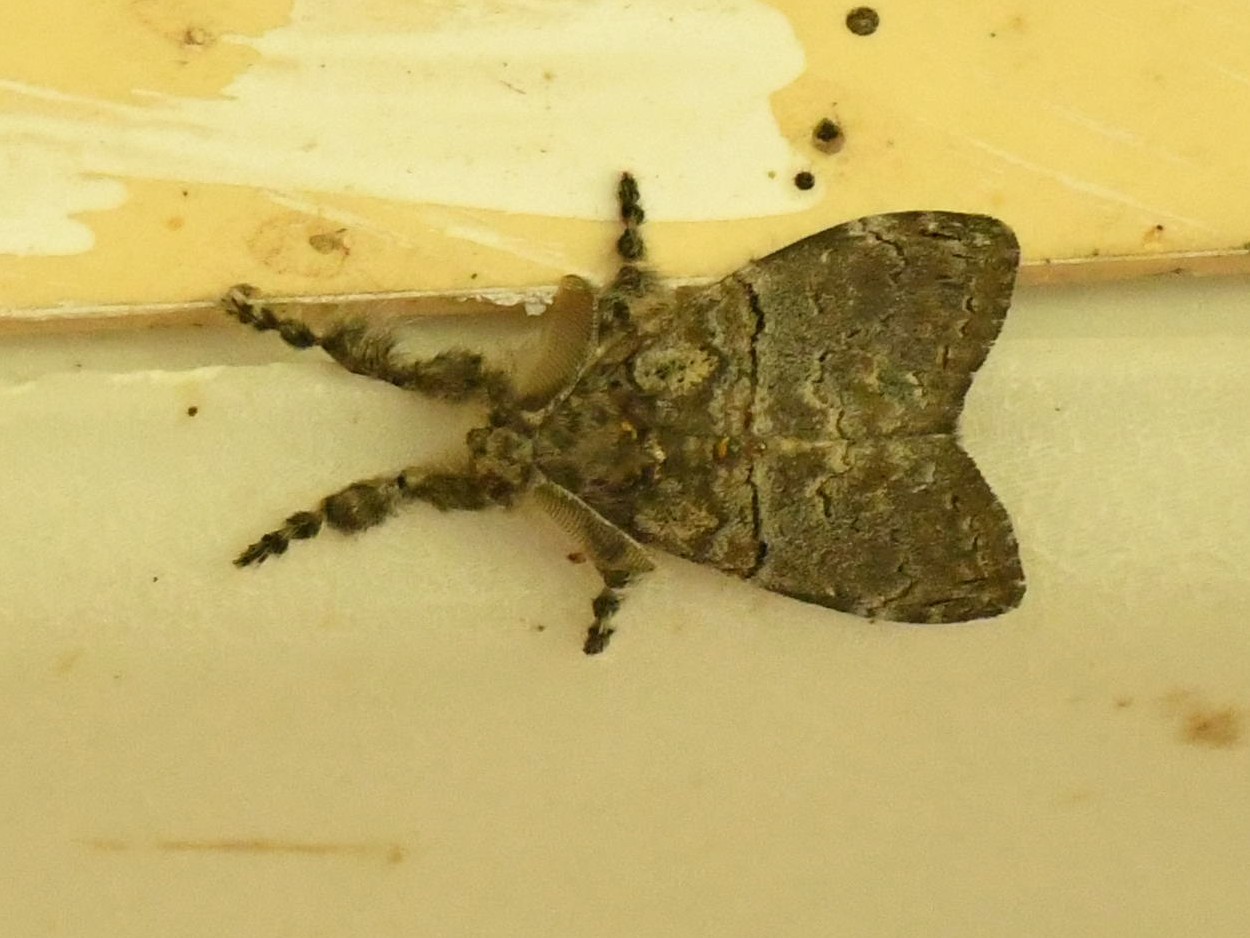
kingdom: Animalia
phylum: Arthropoda
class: Insecta
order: Lepidoptera
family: Erebidae
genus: Olene
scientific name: Olene mendosa
